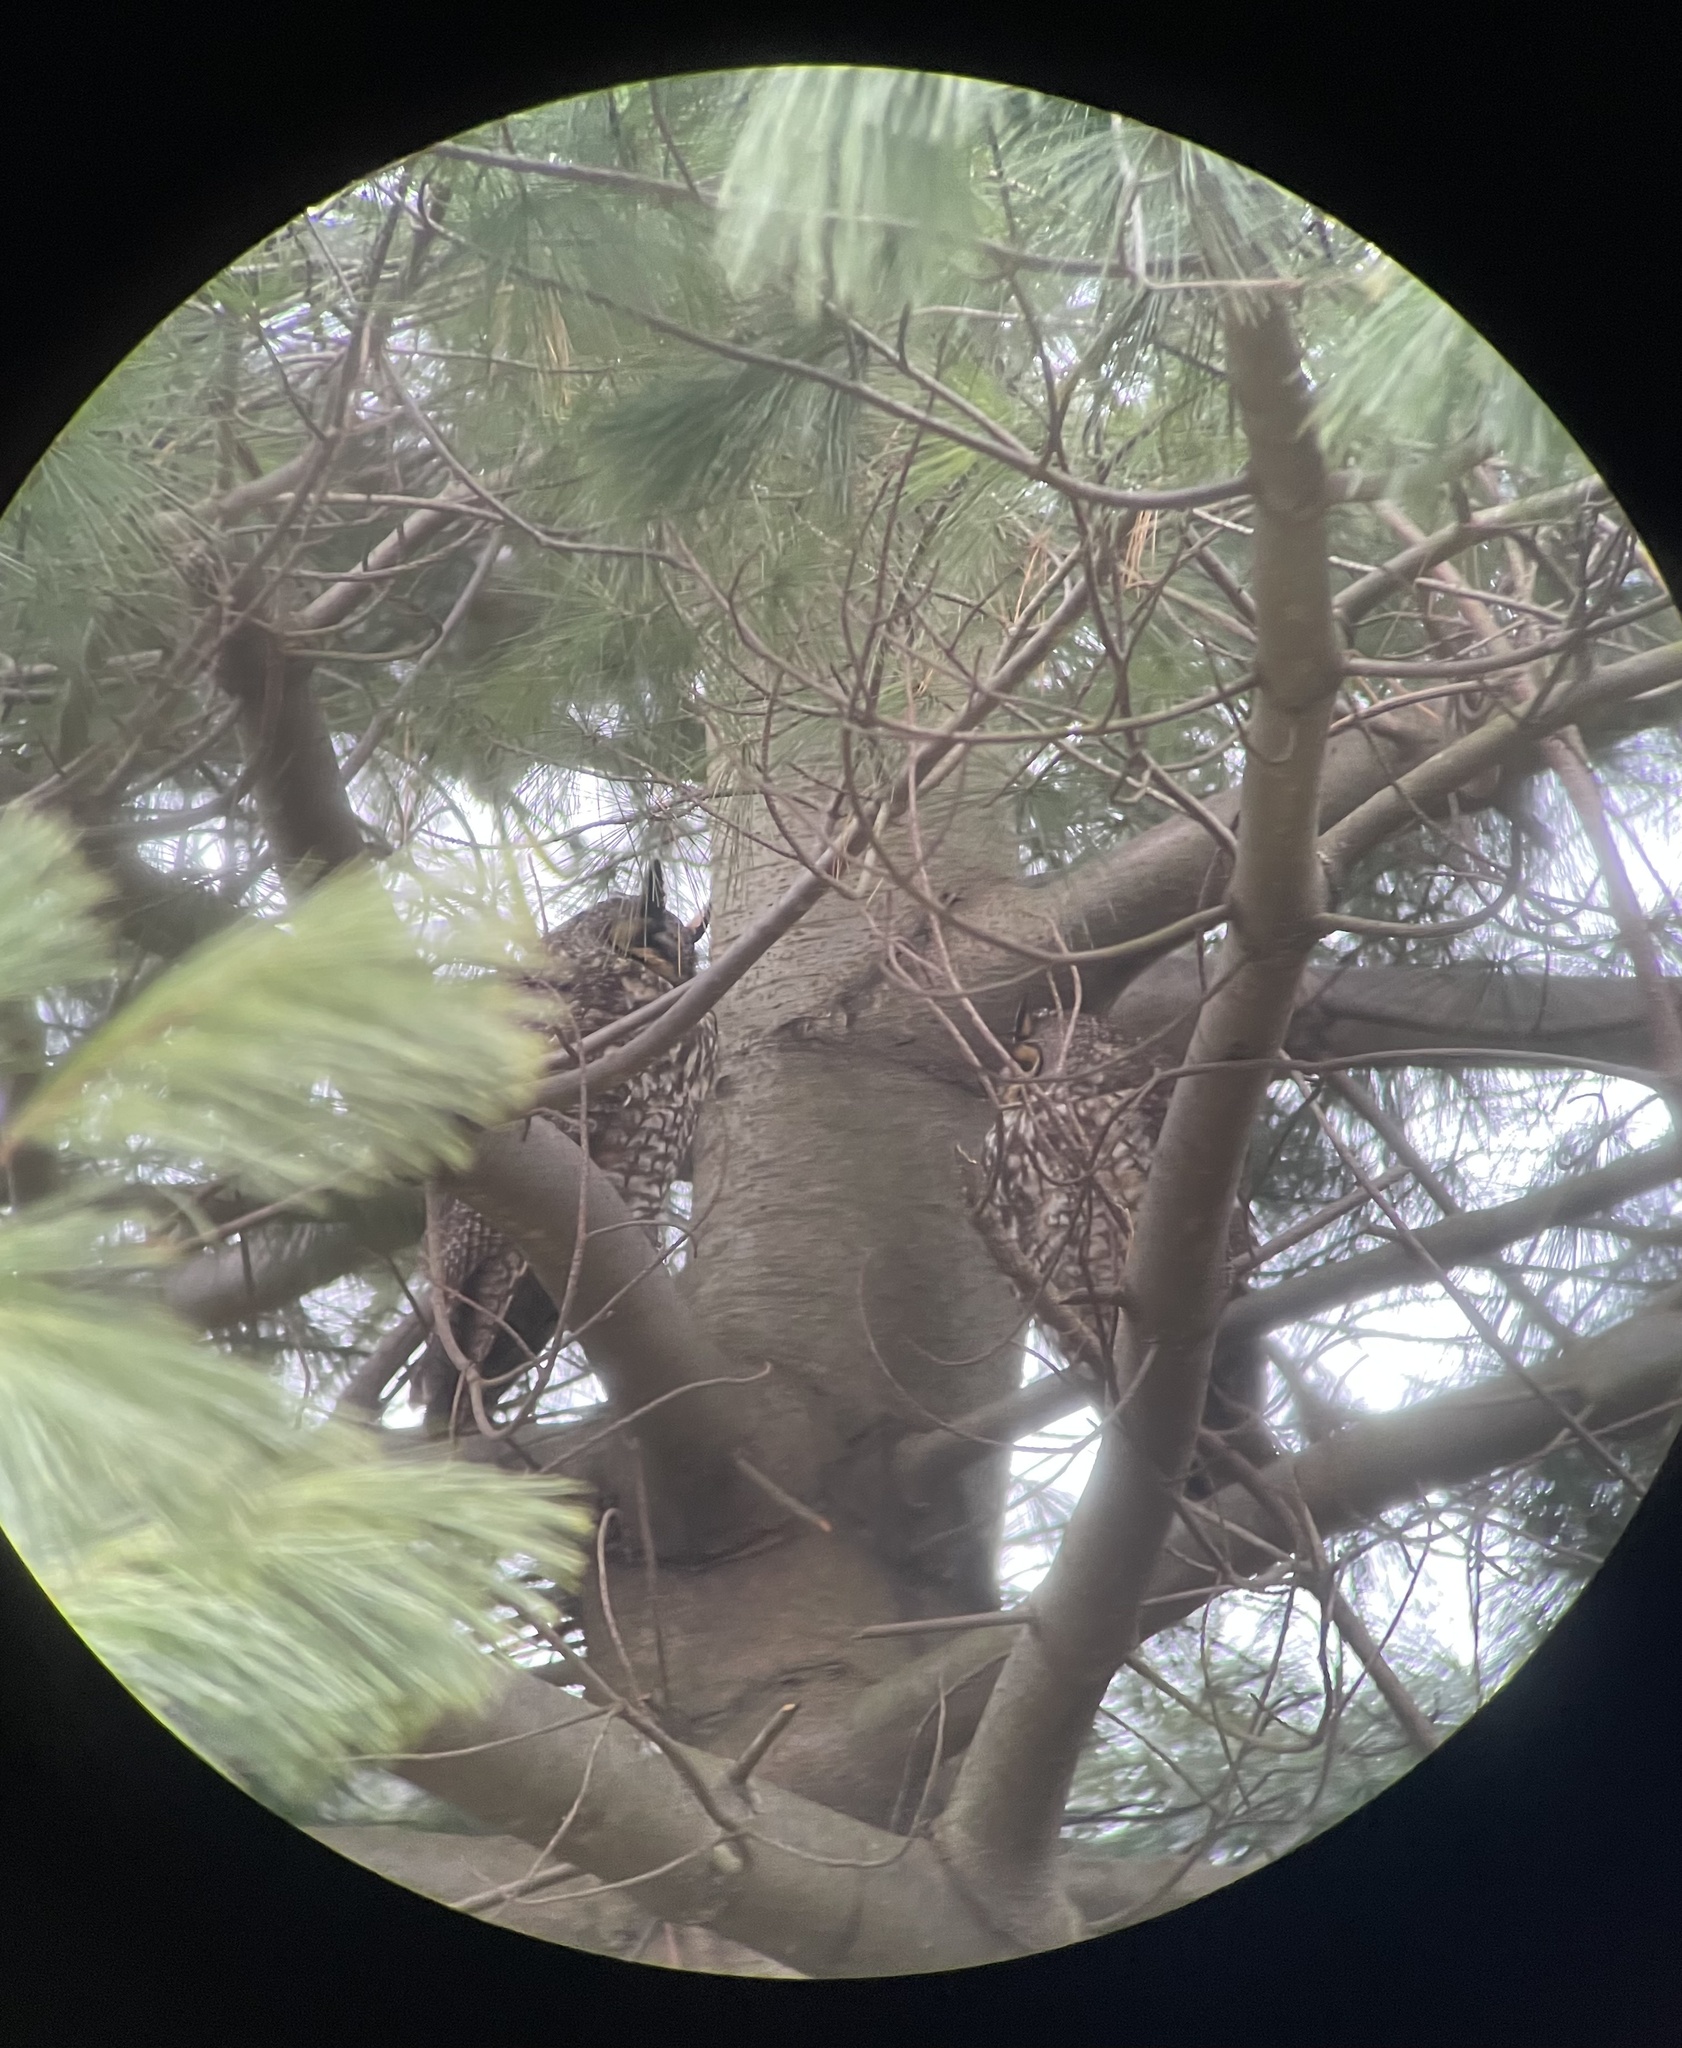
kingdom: Animalia
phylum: Chordata
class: Aves
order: Strigiformes
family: Strigidae
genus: Asio
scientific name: Asio otus
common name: Long-eared owl
